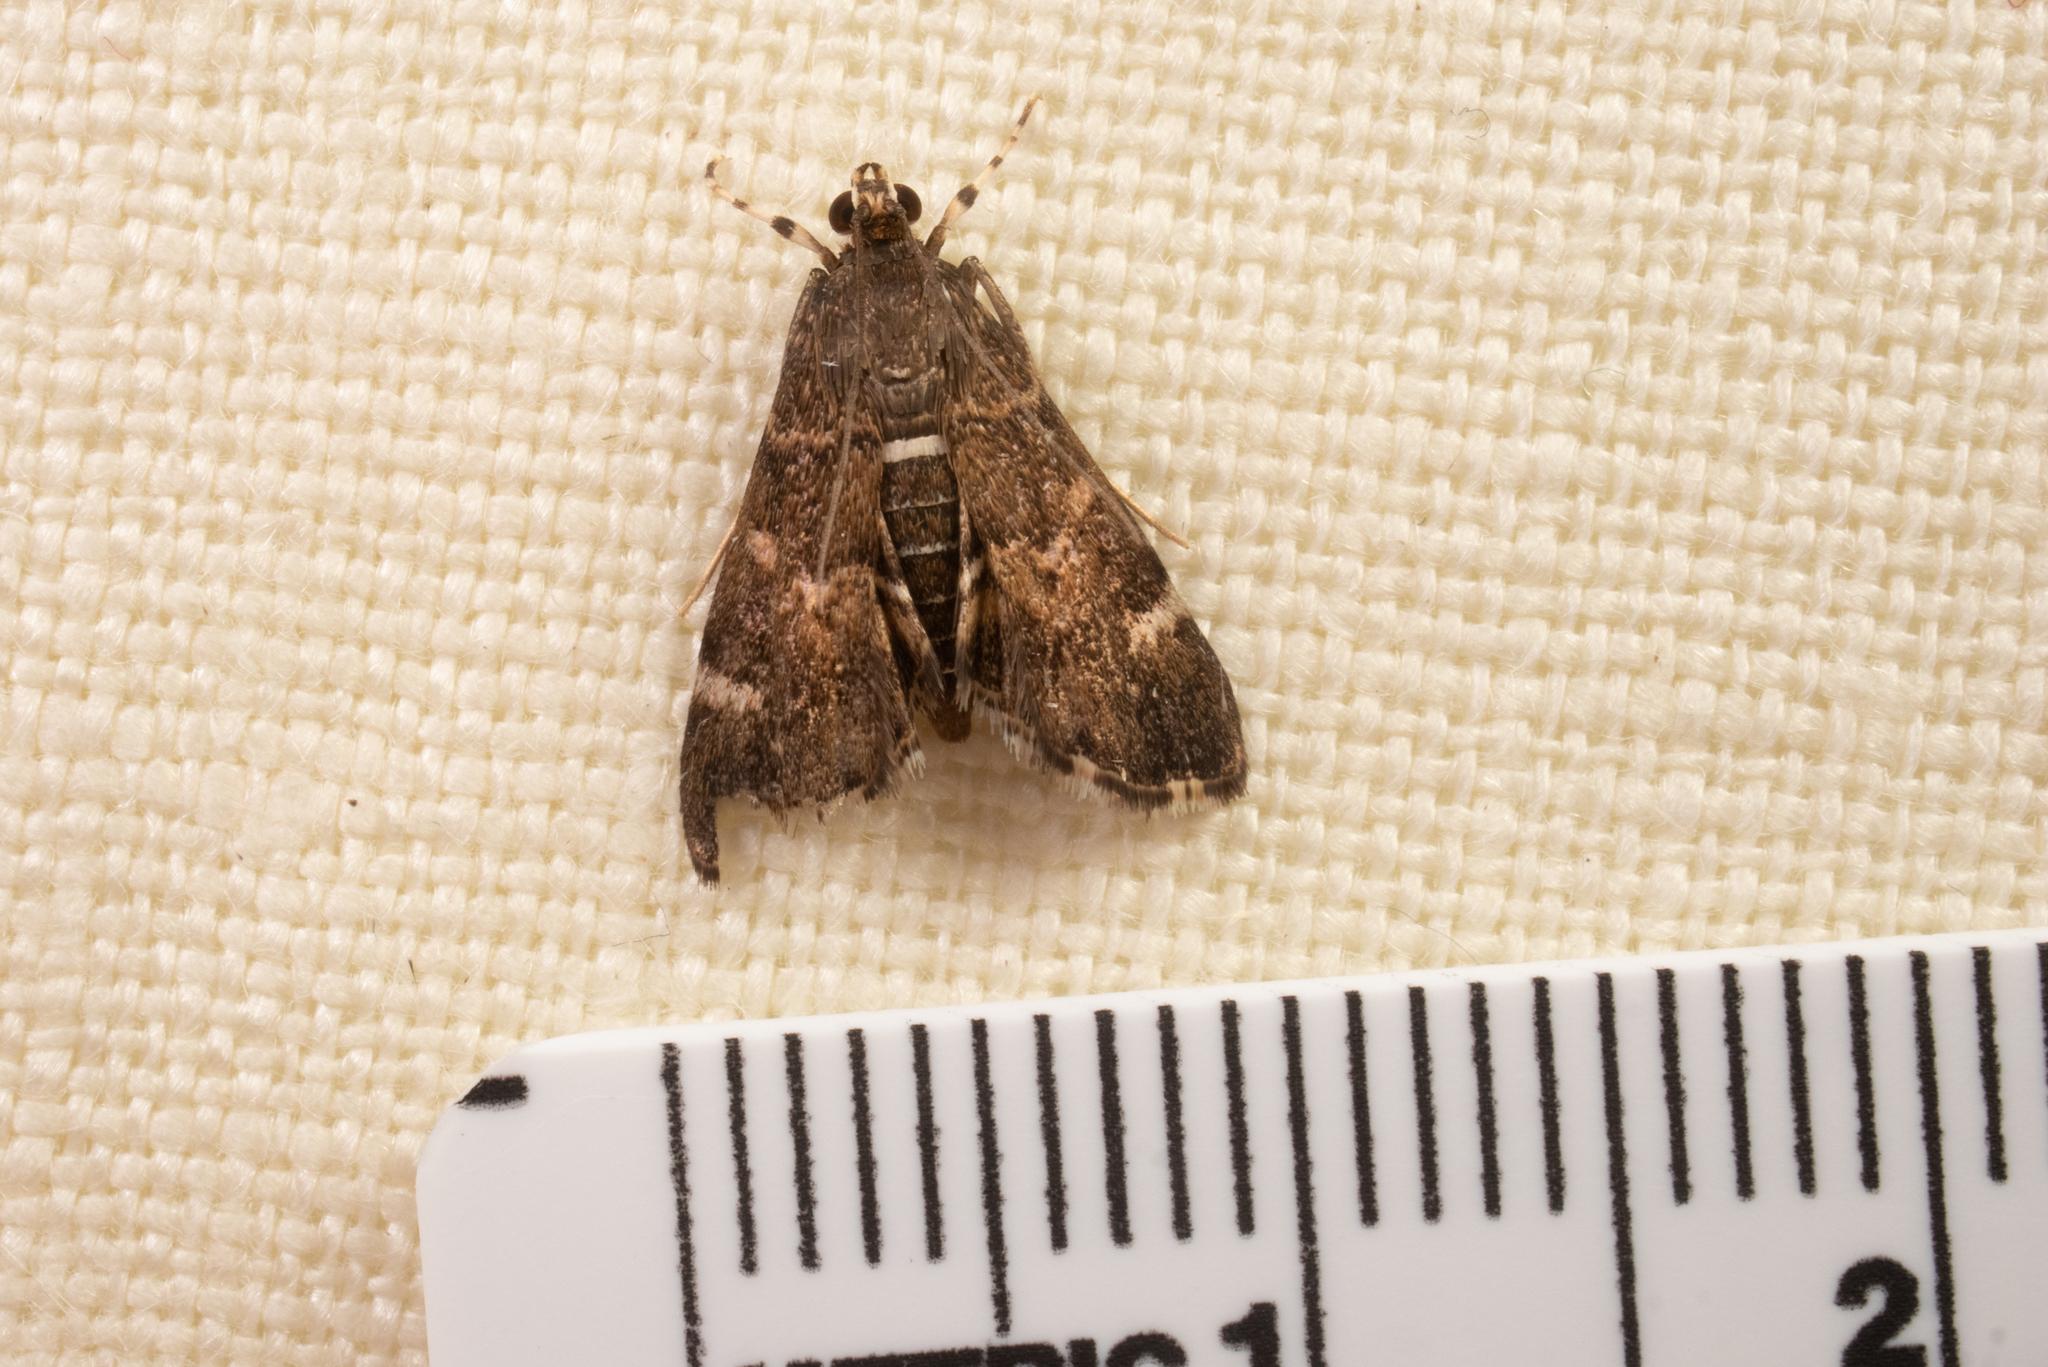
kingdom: Animalia
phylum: Arthropoda
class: Insecta
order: Lepidoptera
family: Crambidae
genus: Hymenia
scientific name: Hymenia perspectalis
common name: Spotted beet webworm
